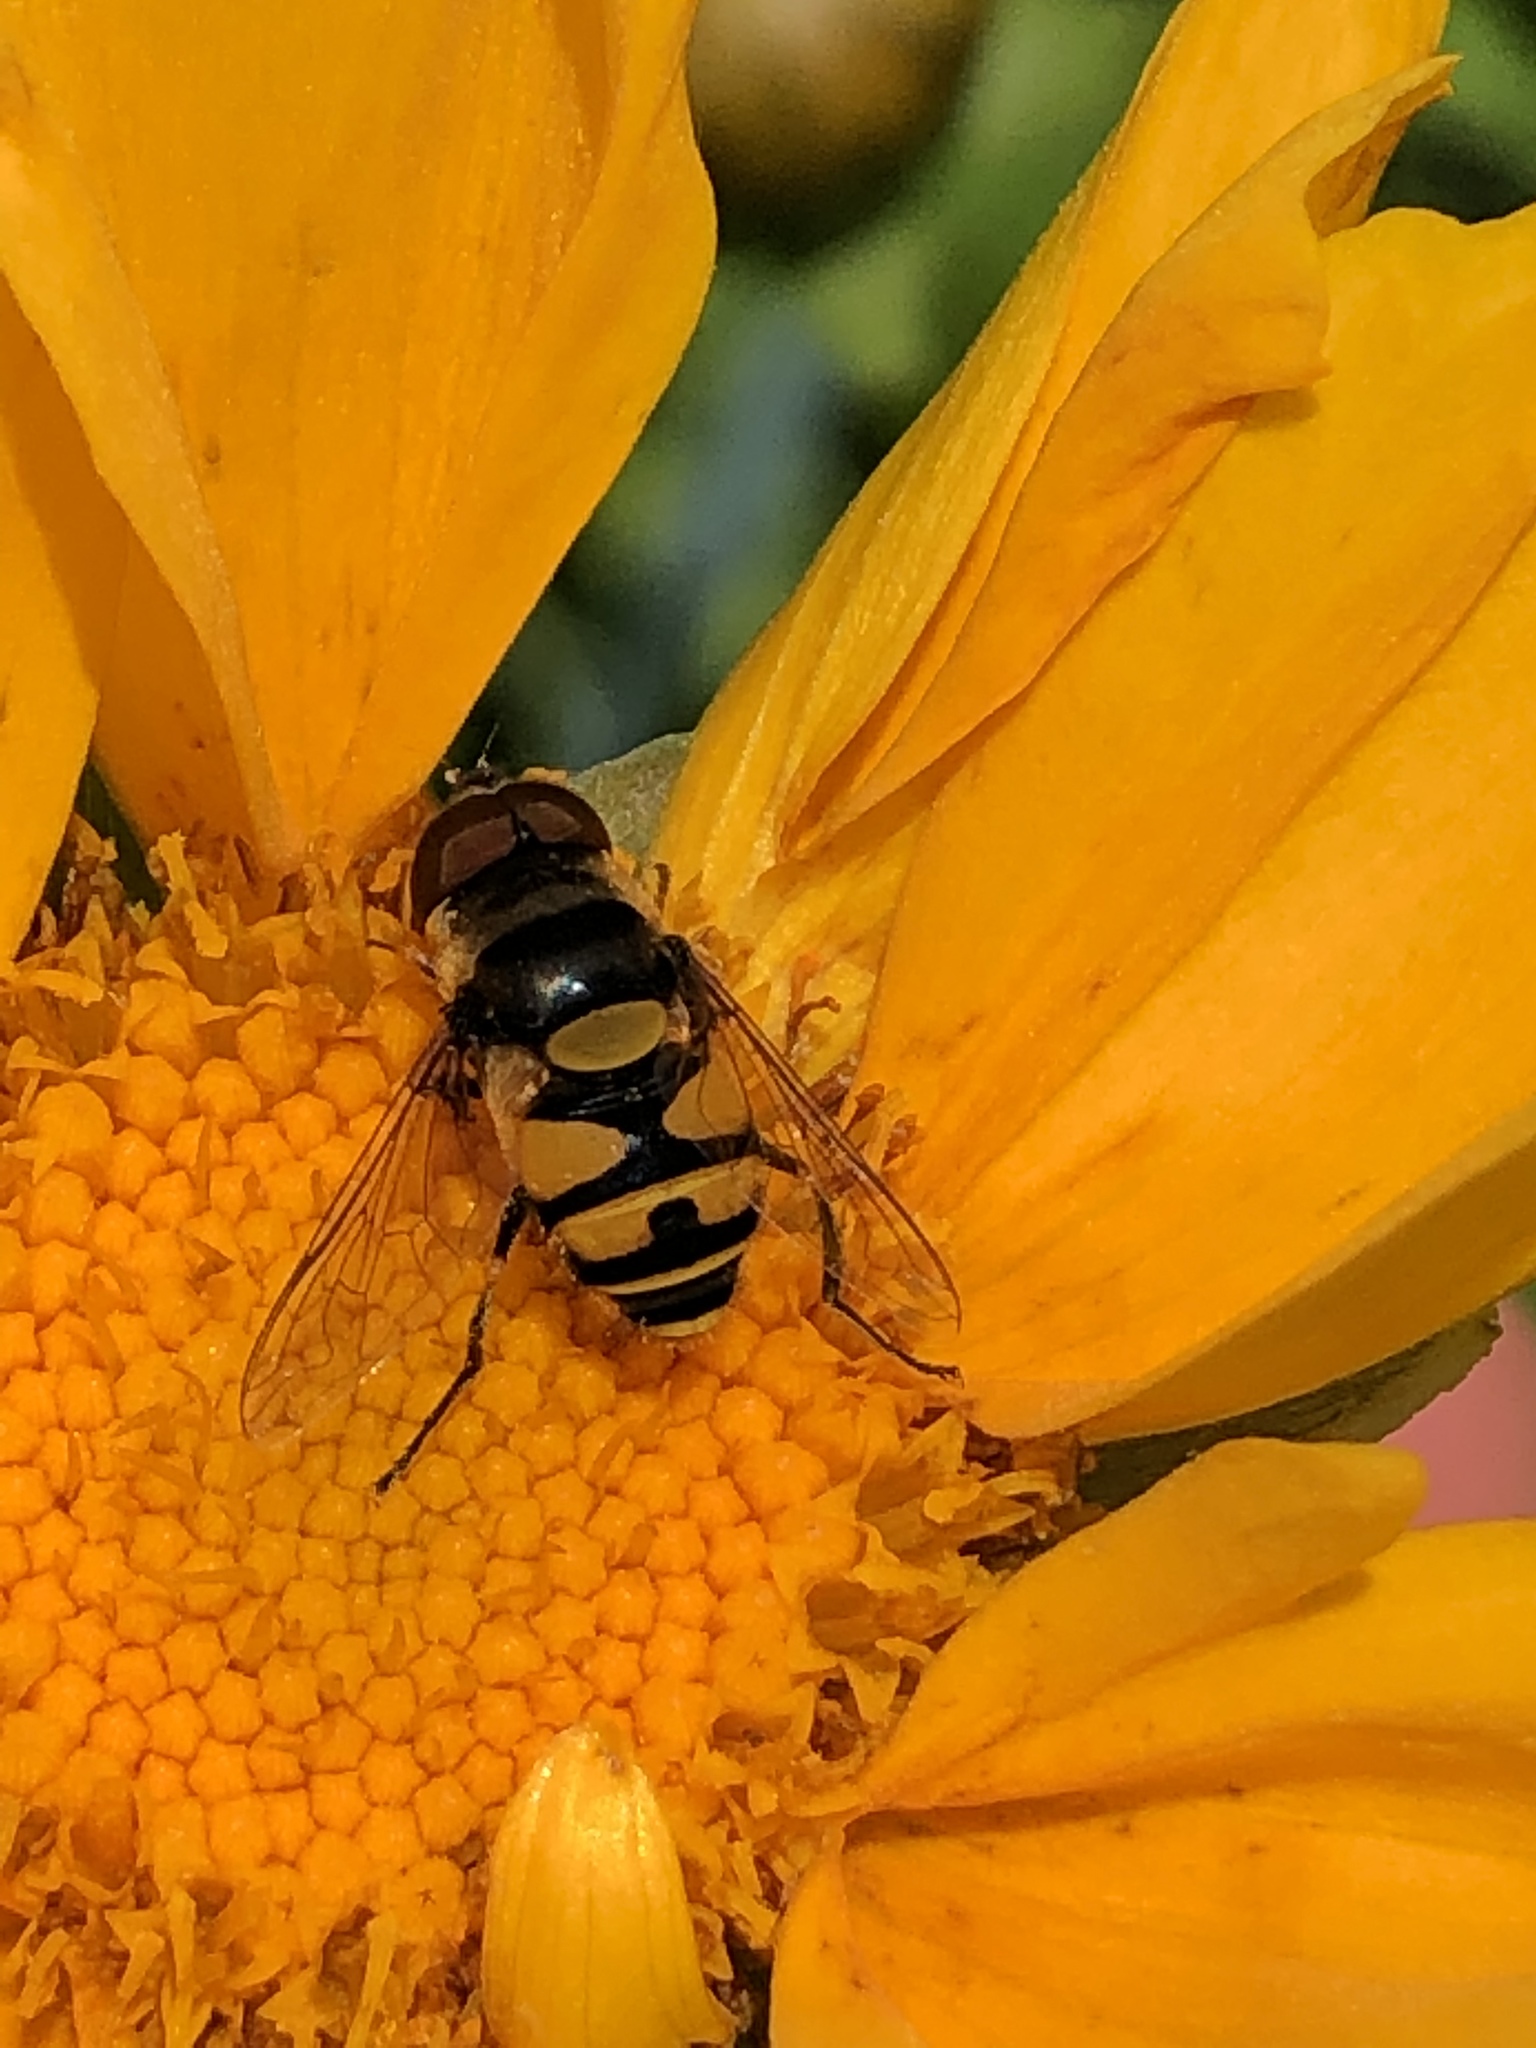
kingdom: Animalia
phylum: Arthropoda
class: Insecta
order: Diptera
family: Syrphidae
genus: Eristalis
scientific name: Eristalis transversa
